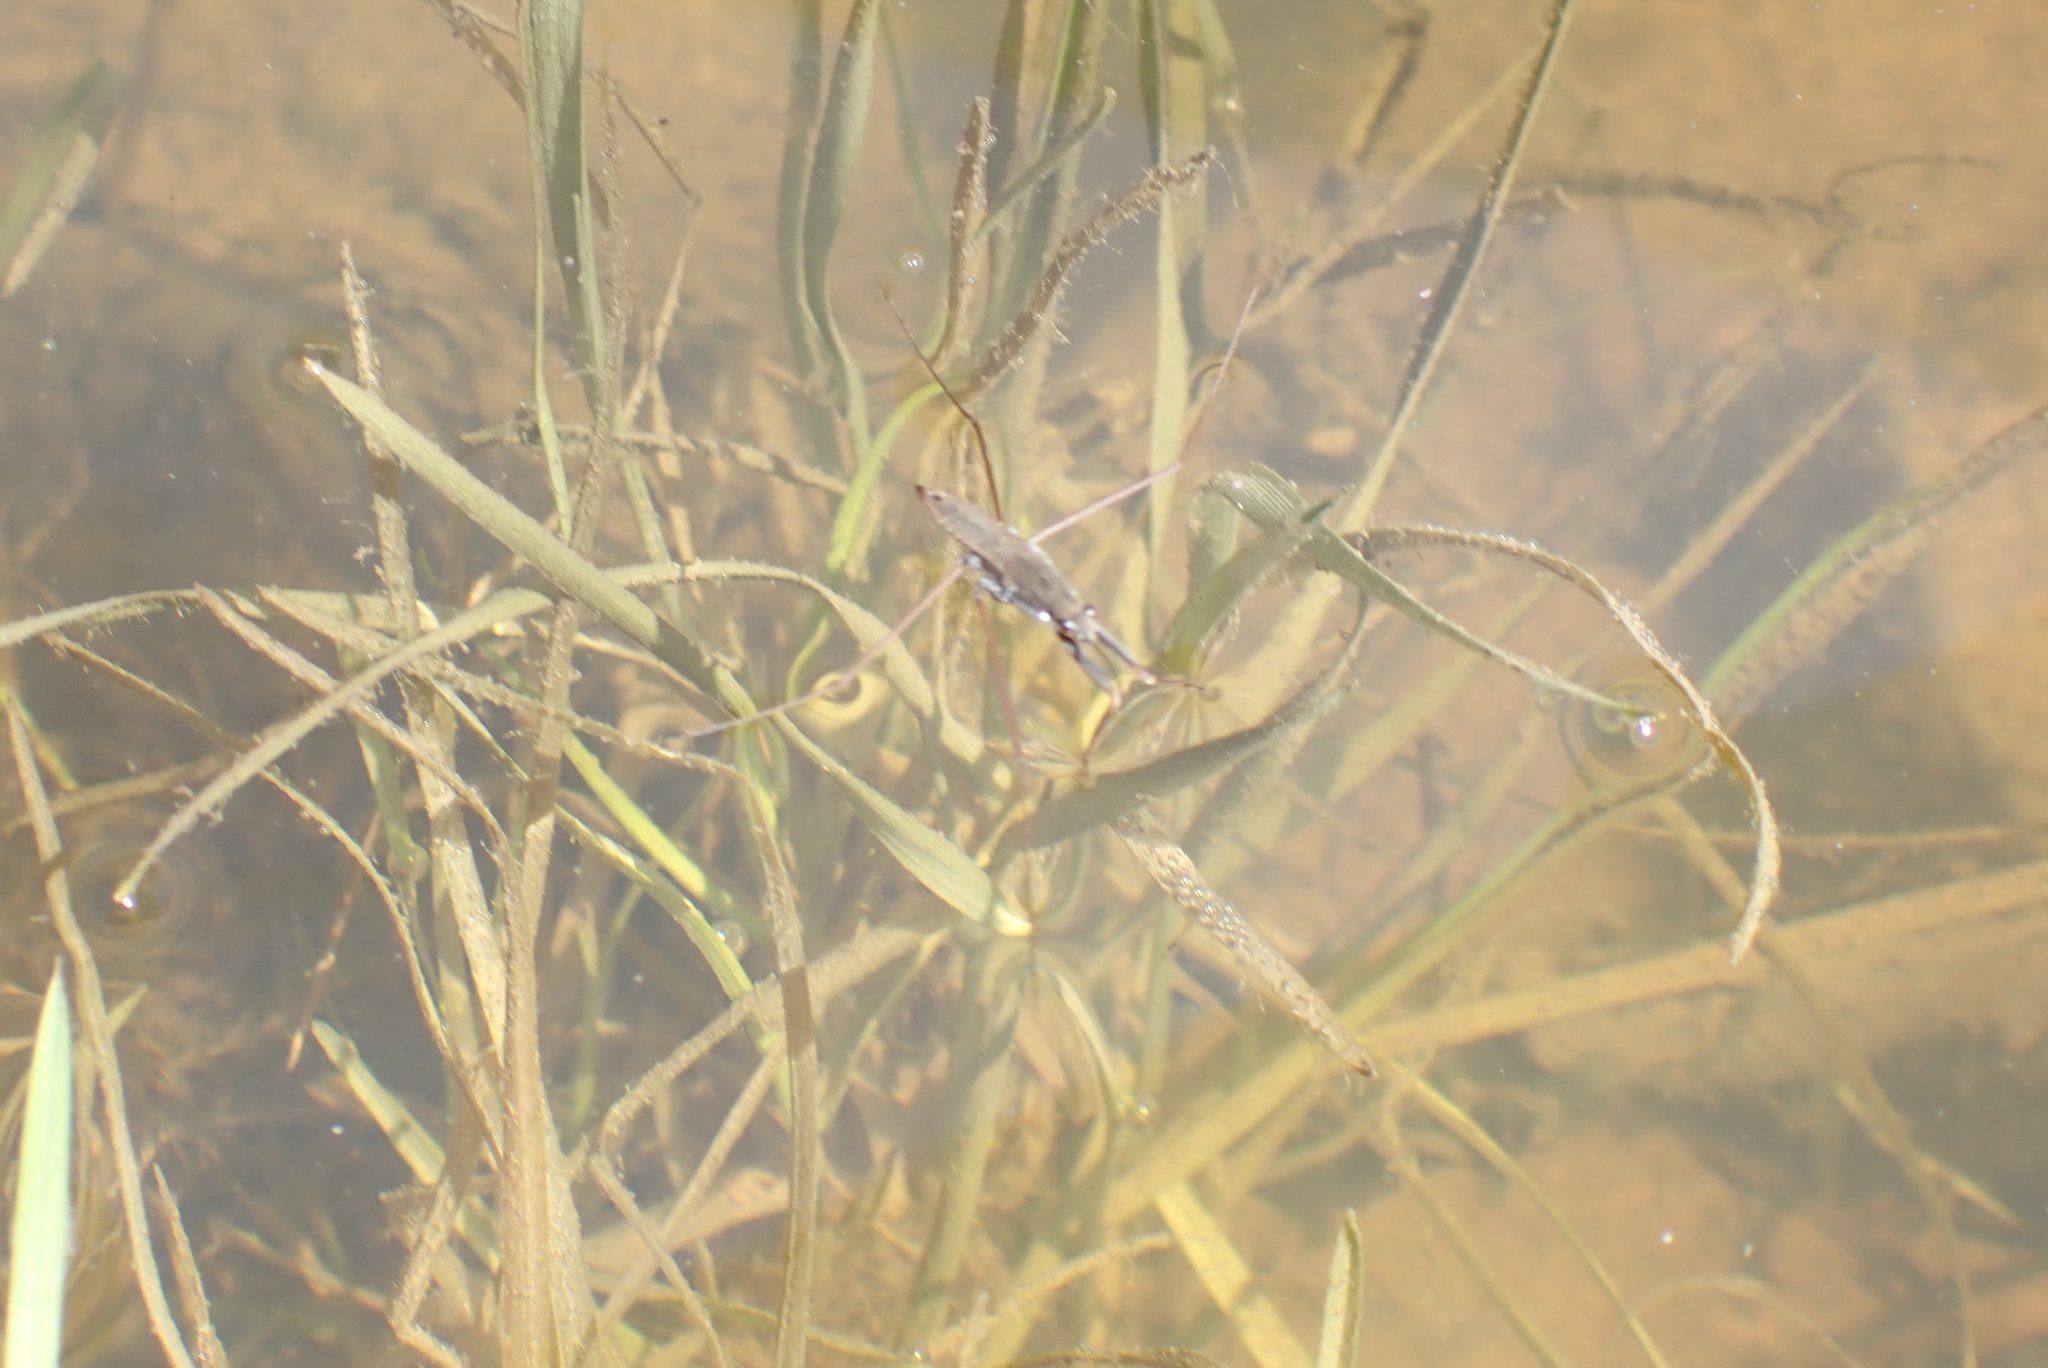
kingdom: Animalia
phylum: Arthropoda
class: Insecta
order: Hemiptera
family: Gerridae
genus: Aquarius
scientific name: Aquarius remigis
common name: Common water strider
